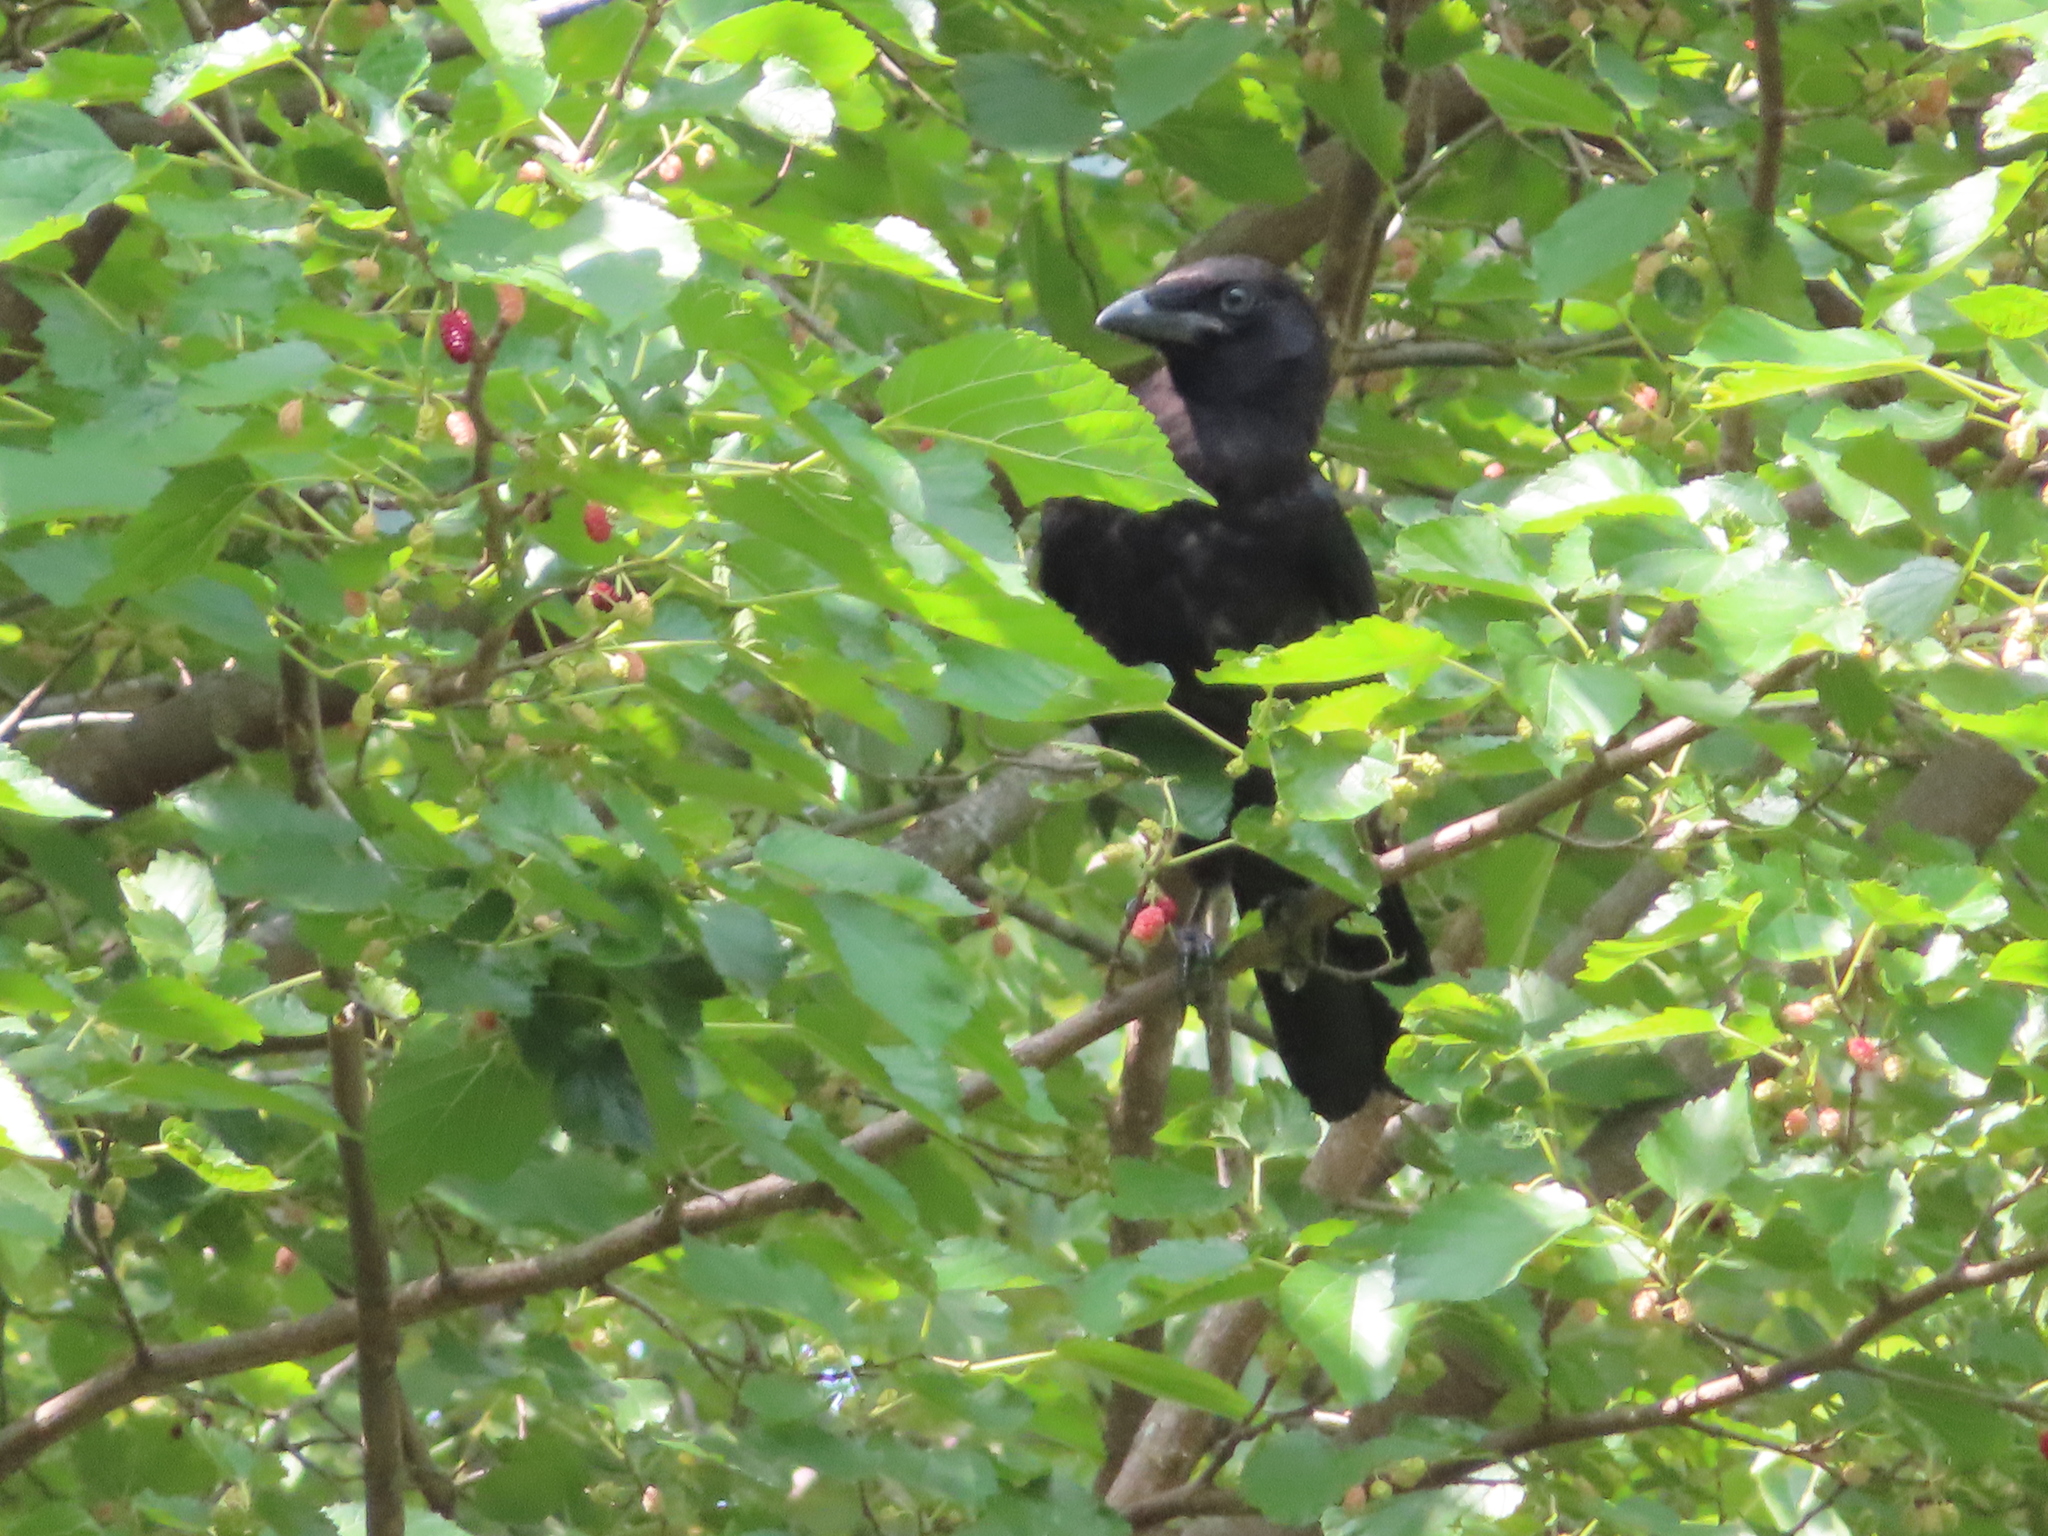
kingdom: Animalia
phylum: Chordata
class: Aves
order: Passeriformes
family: Corvidae
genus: Corvus
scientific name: Corvus brachyrhynchos
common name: American crow
